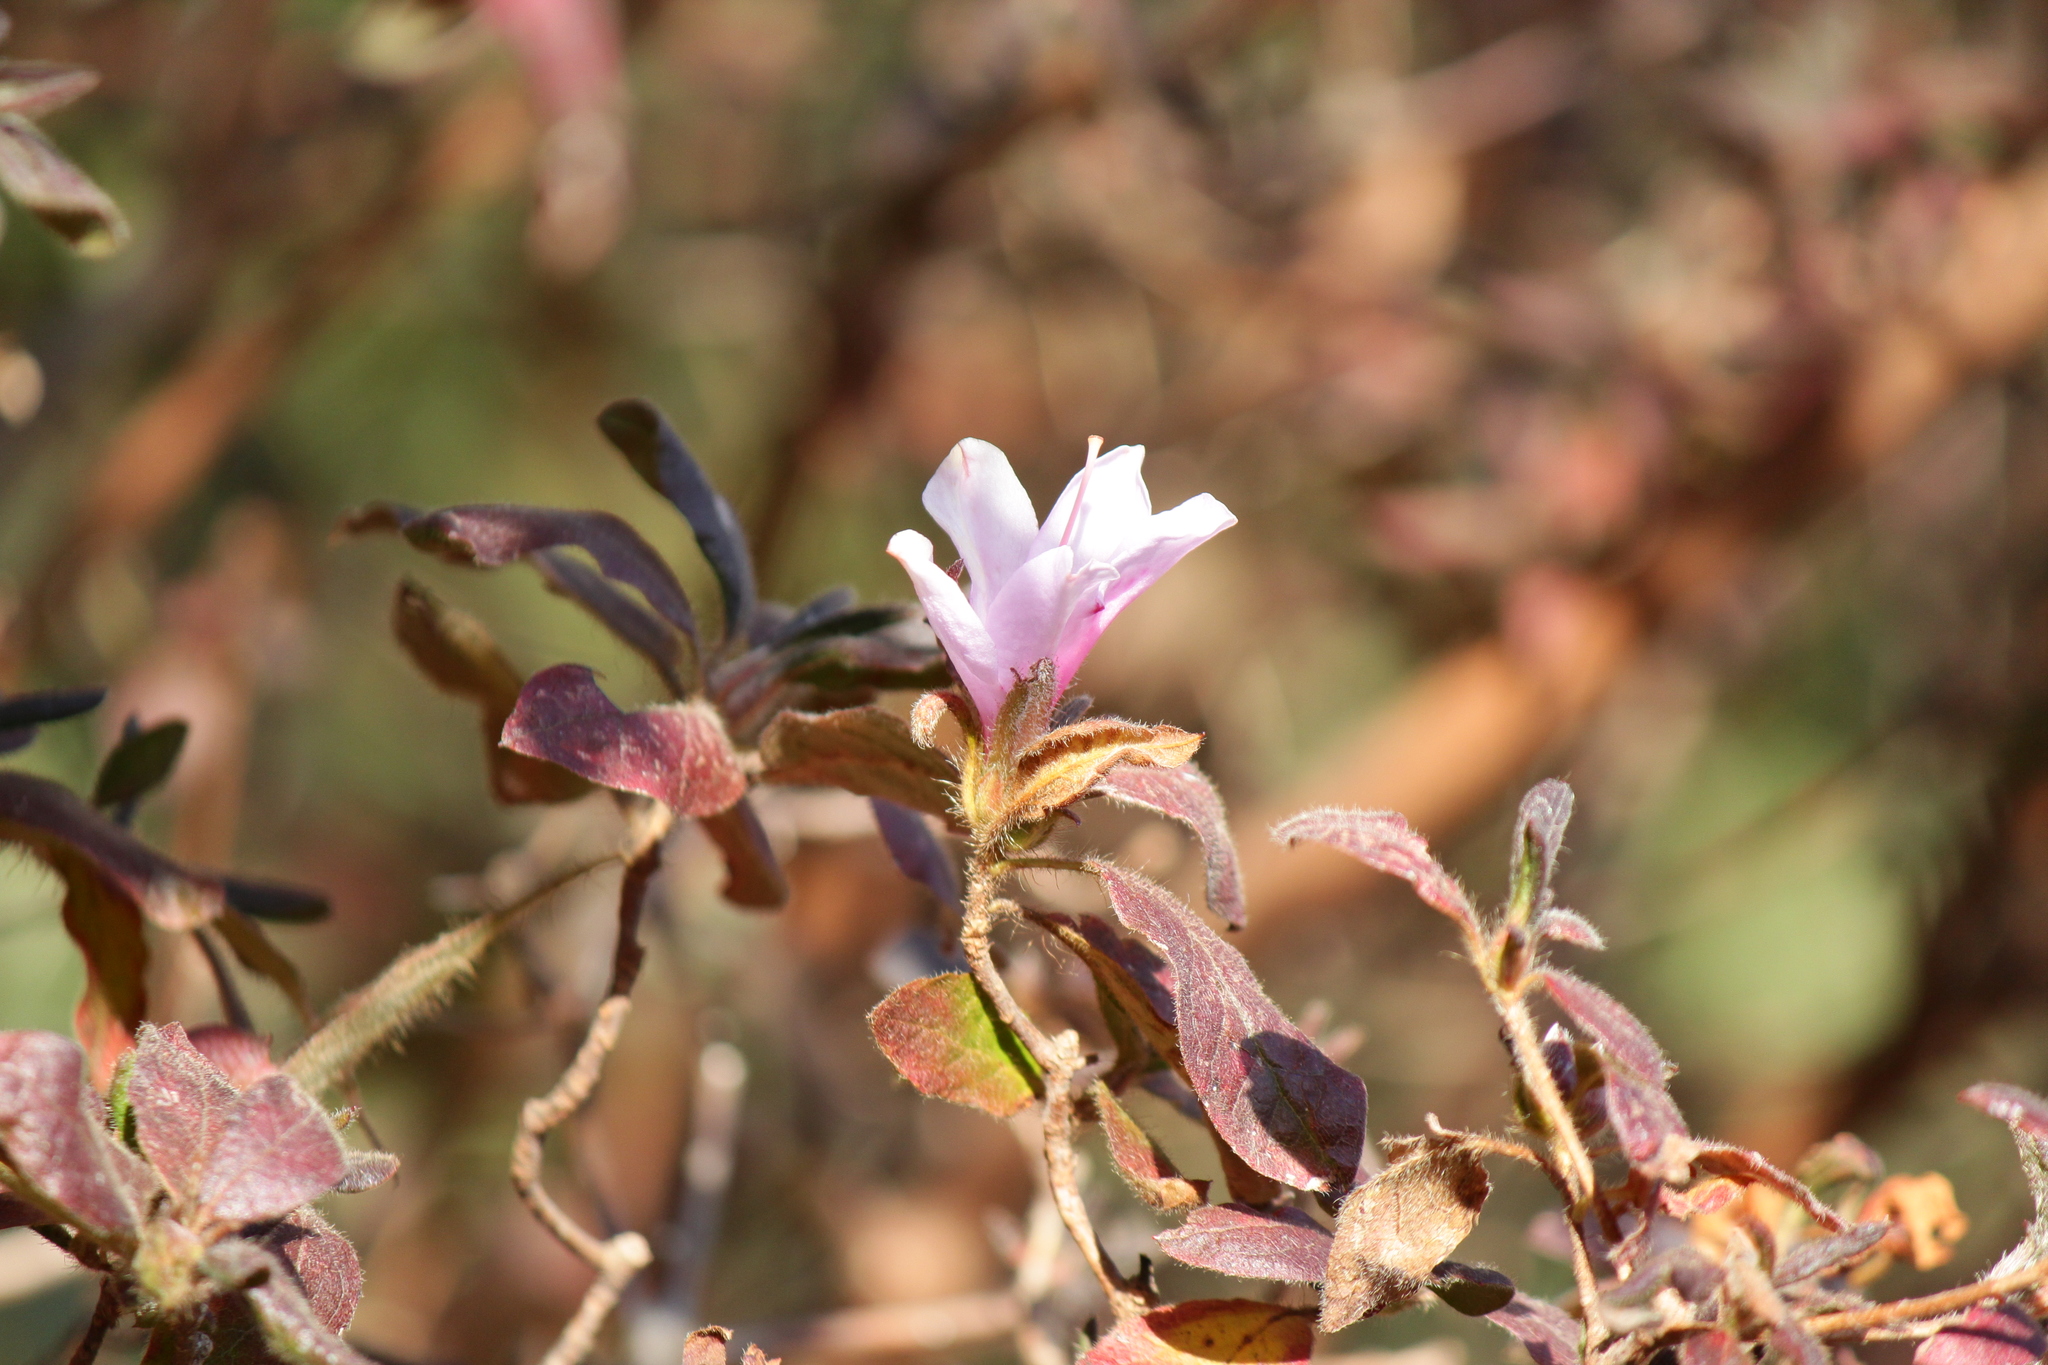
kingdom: Plantae
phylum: Tracheophyta
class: Magnoliopsida
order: Ericales
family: Ericaceae
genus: Rhododendron
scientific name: Rhododendron stenopetalum
